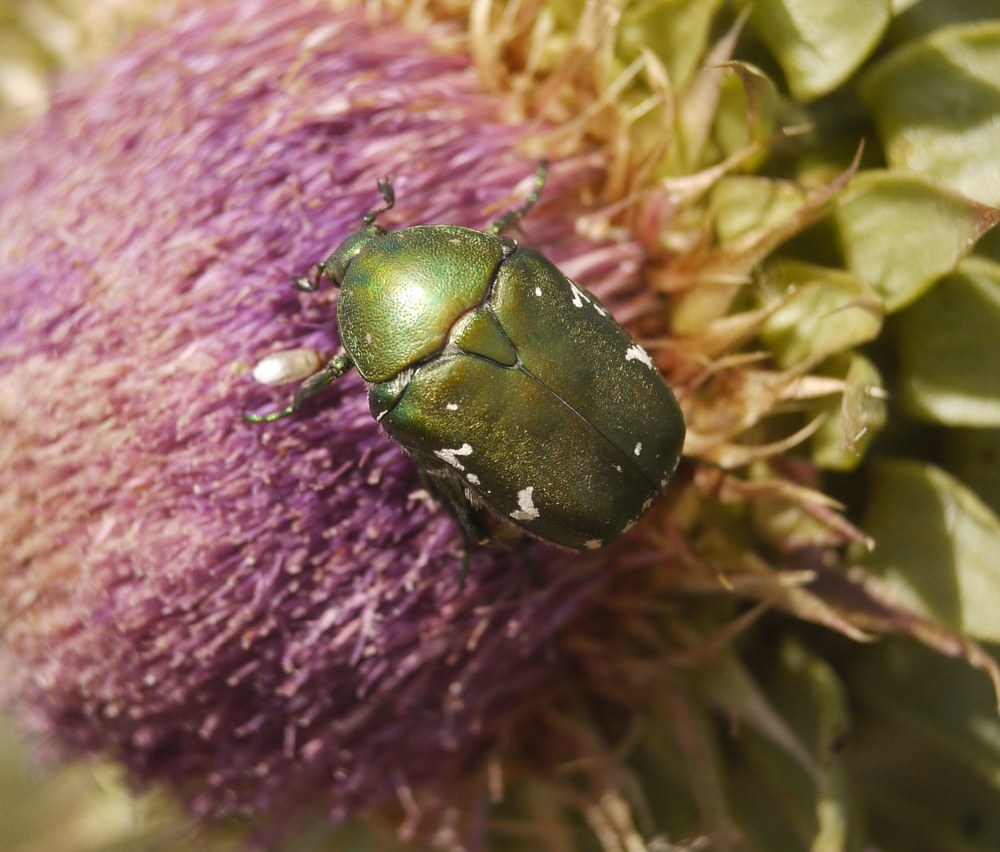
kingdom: Animalia
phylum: Arthropoda
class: Insecta
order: Coleoptera
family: Scarabaeidae
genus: Protaetia
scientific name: Protaetia ungarica
